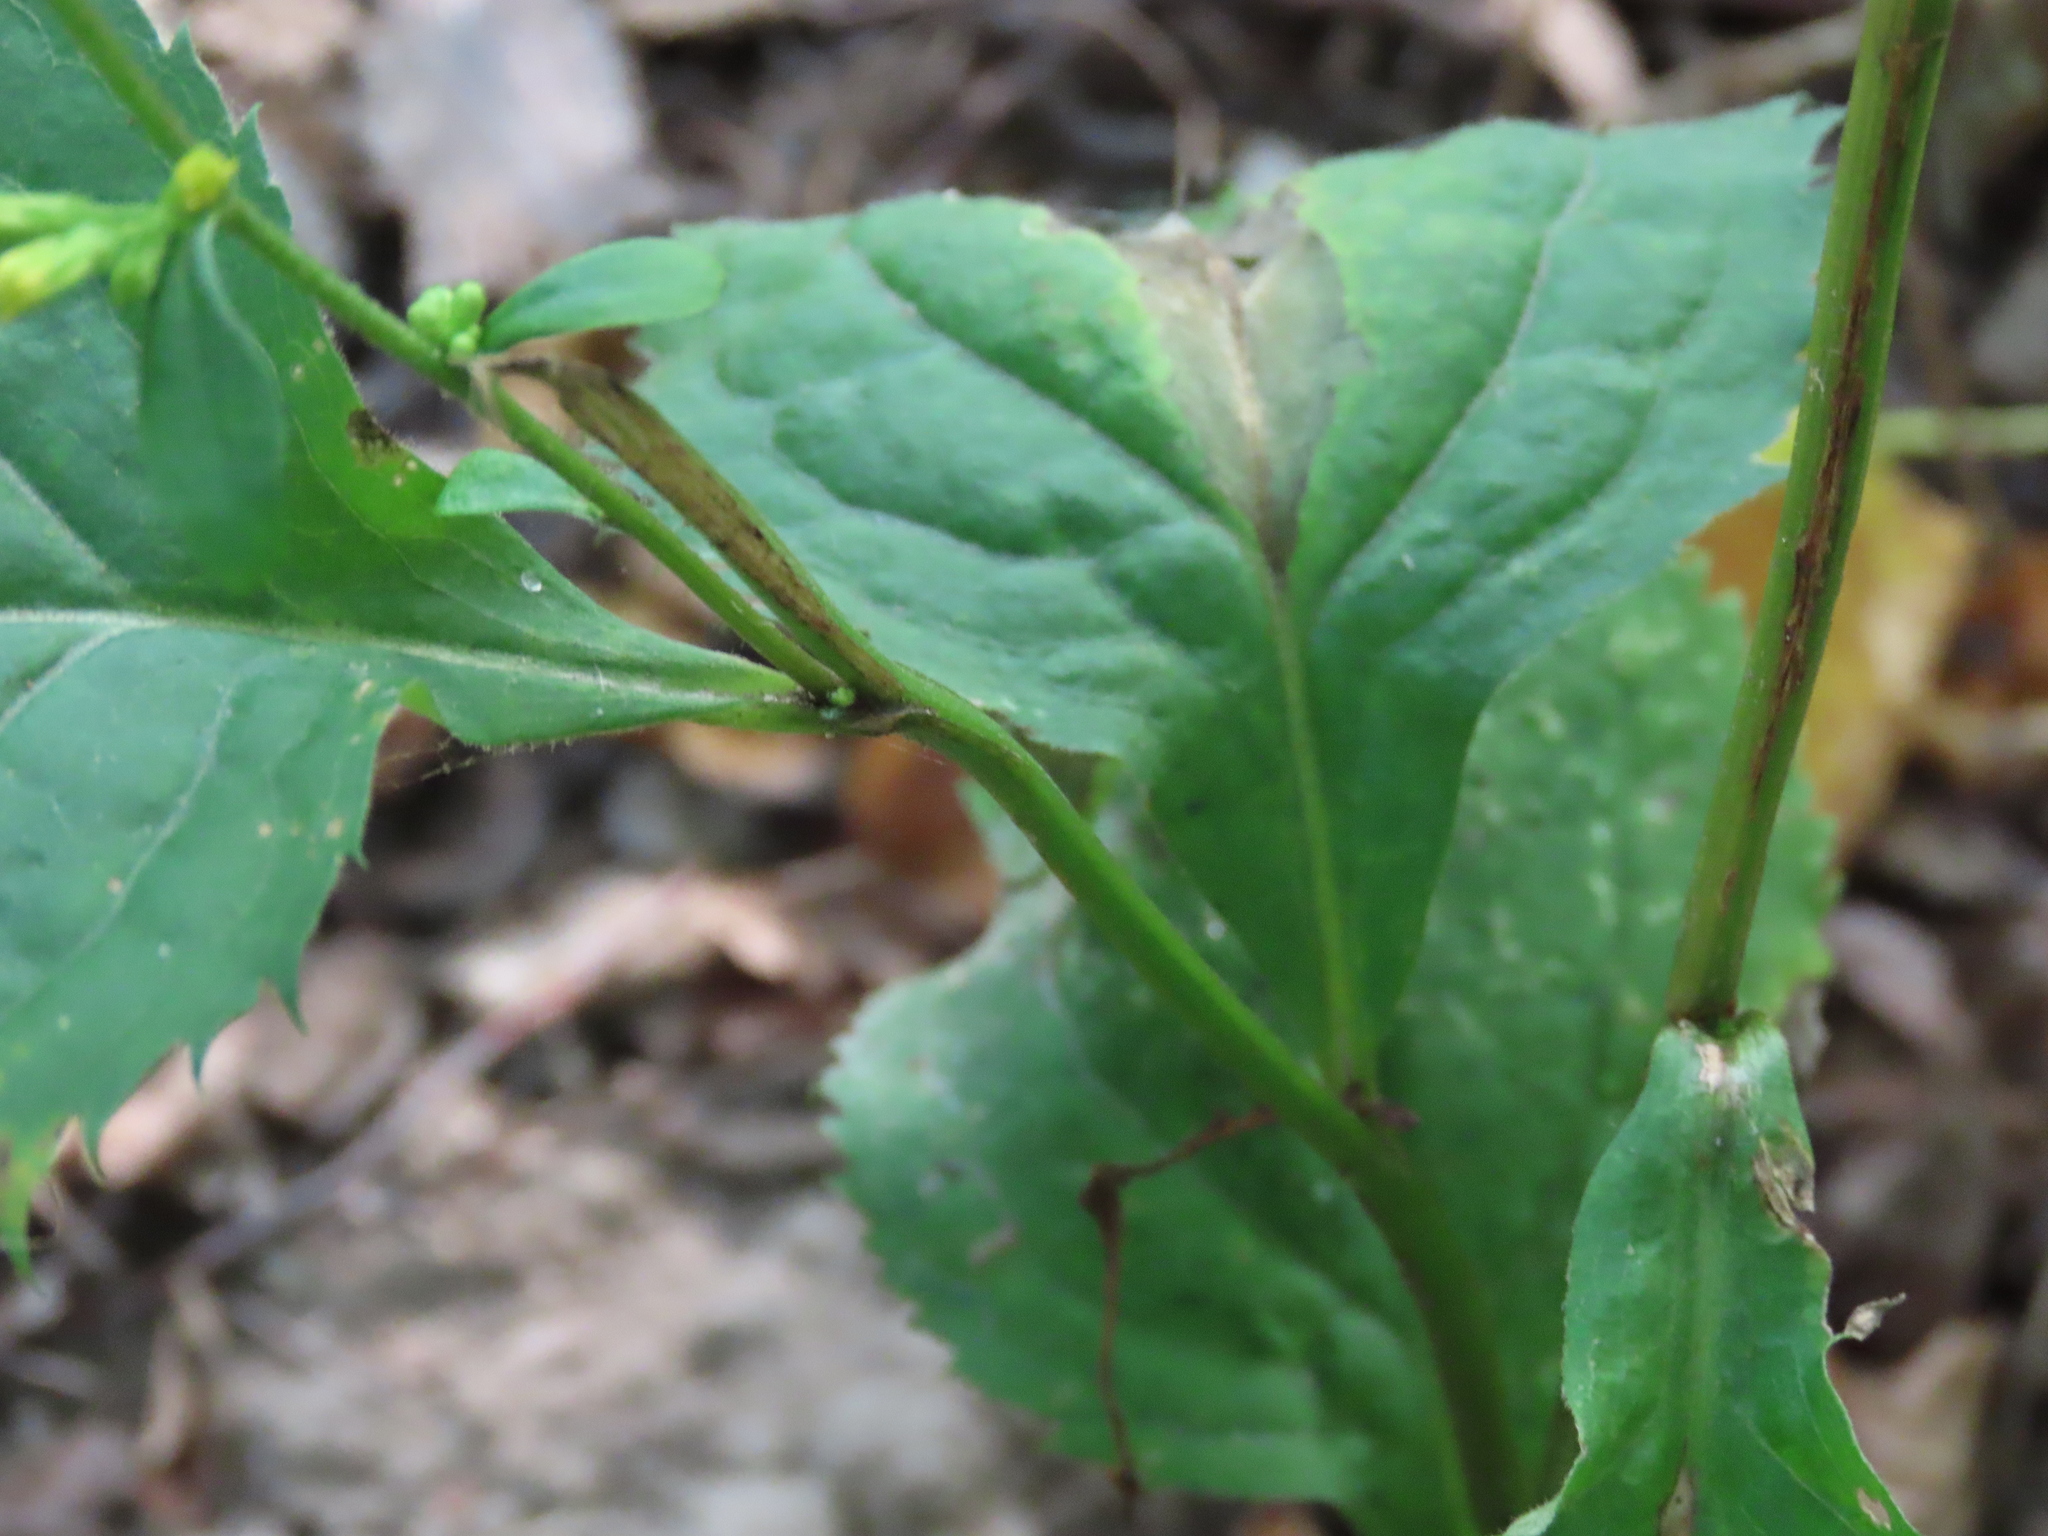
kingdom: Plantae
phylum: Tracheophyta
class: Magnoliopsida
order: Asterales
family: Asteraceae
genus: Solidago
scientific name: Solidago flexicaulis
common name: Zig-zag goldenrod
